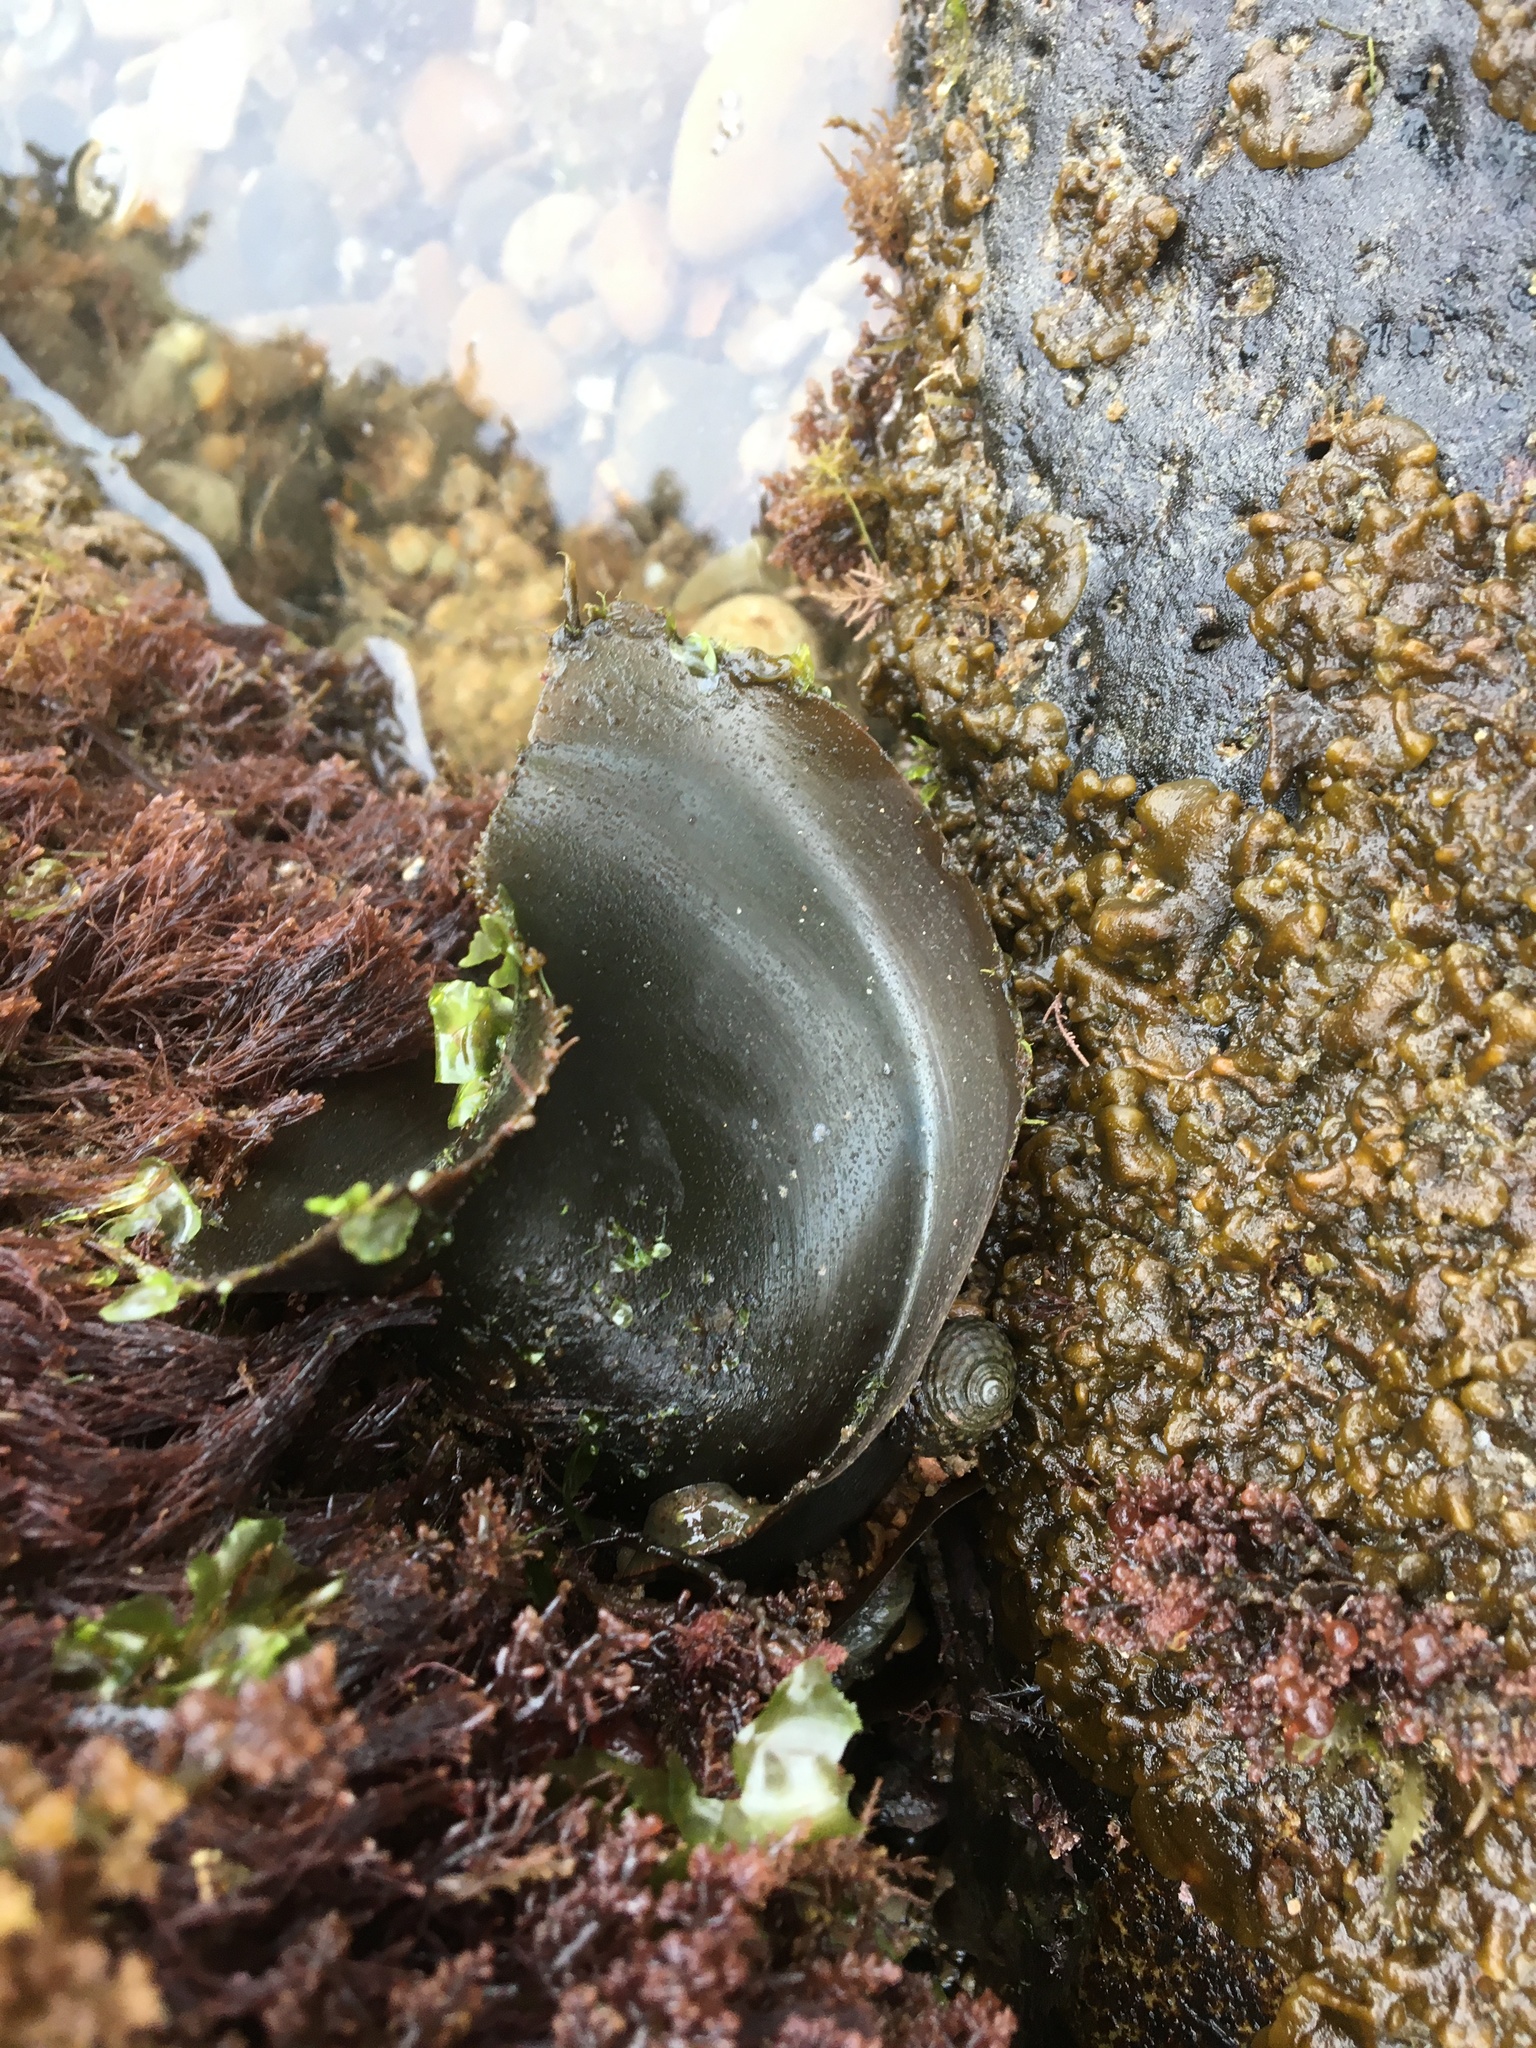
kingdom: Animalia
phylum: Chordata
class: Elasmobranchii
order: Heterodontiformes
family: Heterodontidae
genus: Heterodontus
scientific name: Heterodontus francisci
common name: Horn shark
